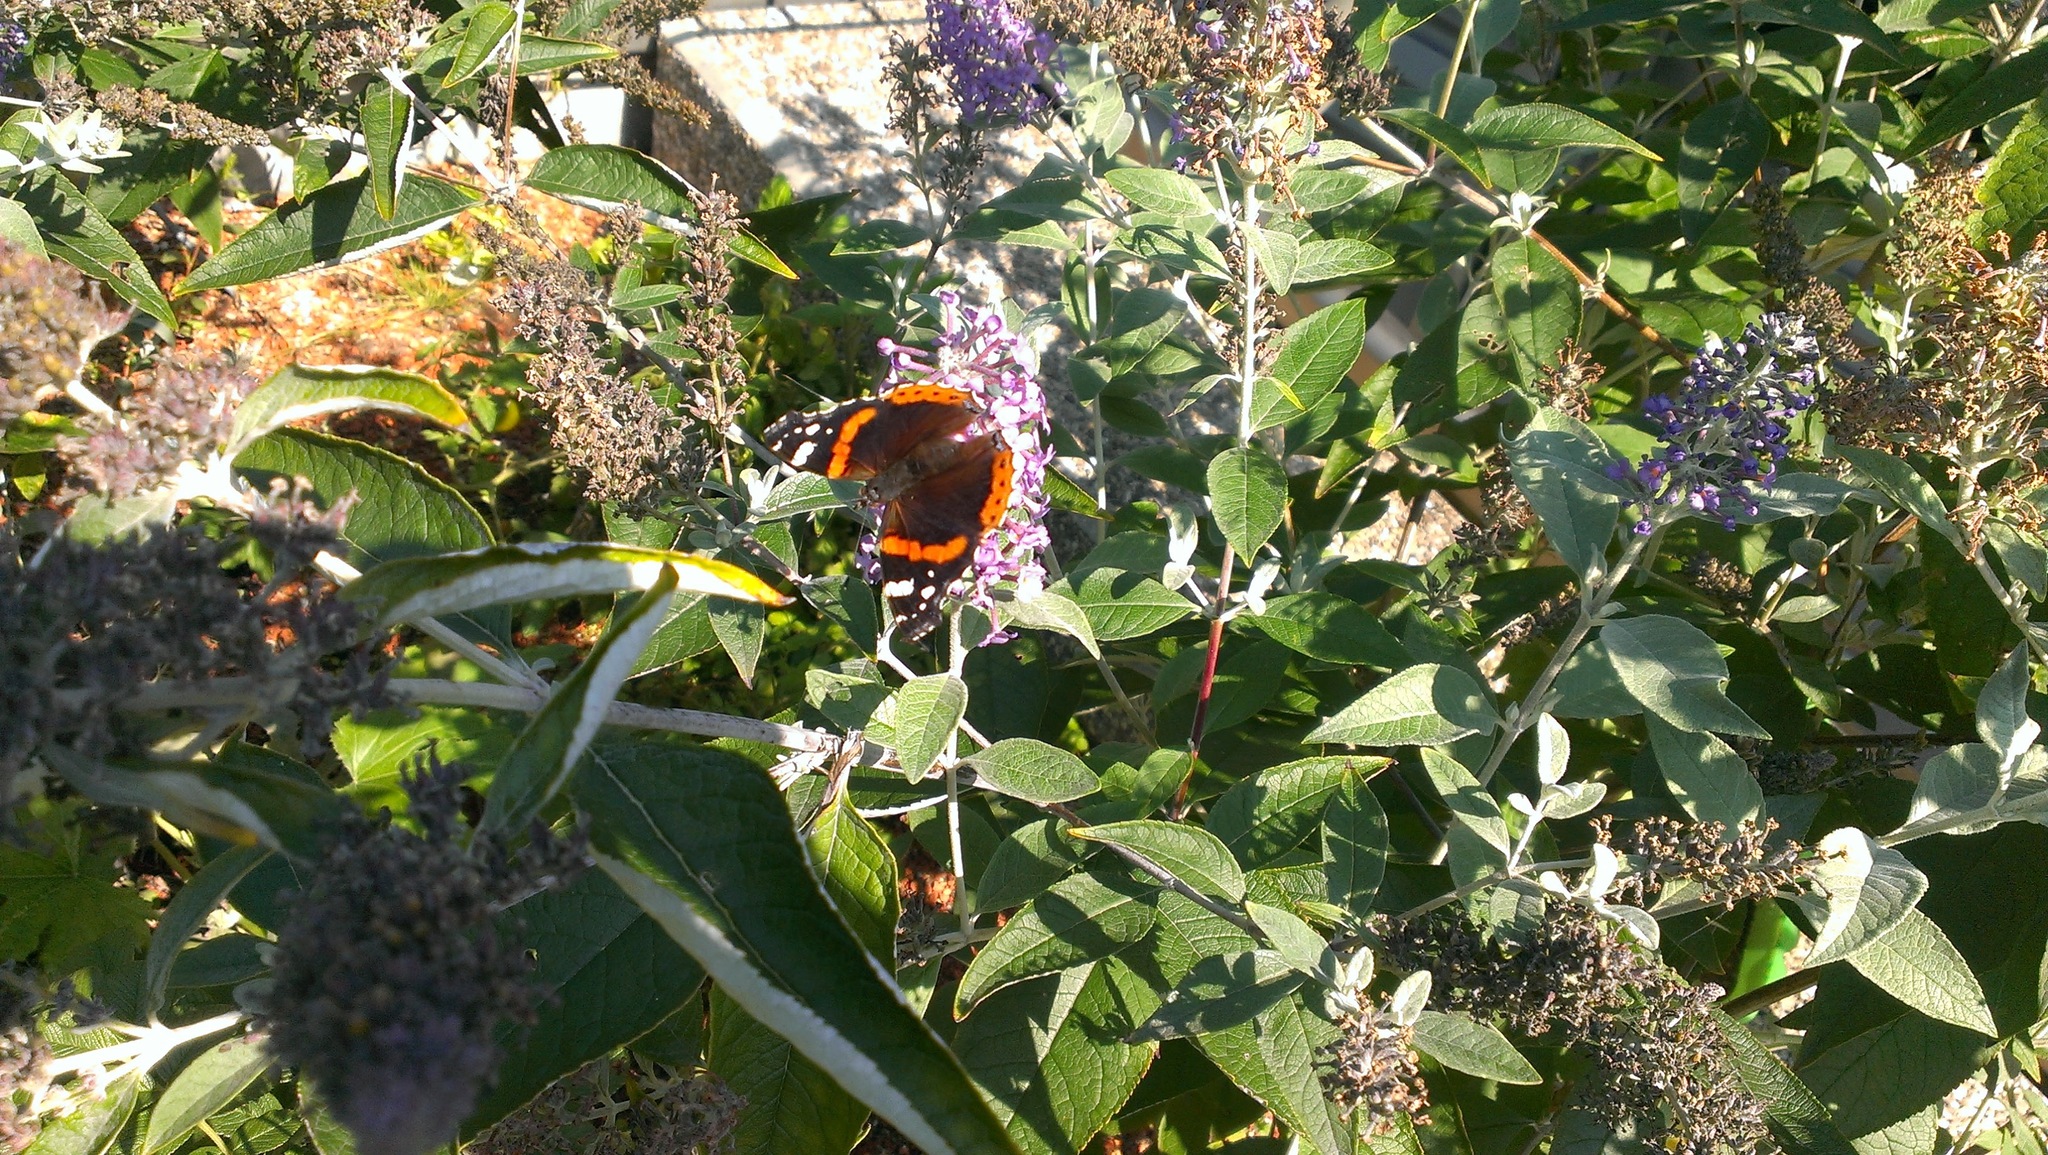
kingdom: Animalia
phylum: Arthropoda
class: Insecta
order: Lepidoptera
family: Nymphalidae
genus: Vanessa
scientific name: Vanessa atalanta
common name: Red admiral
